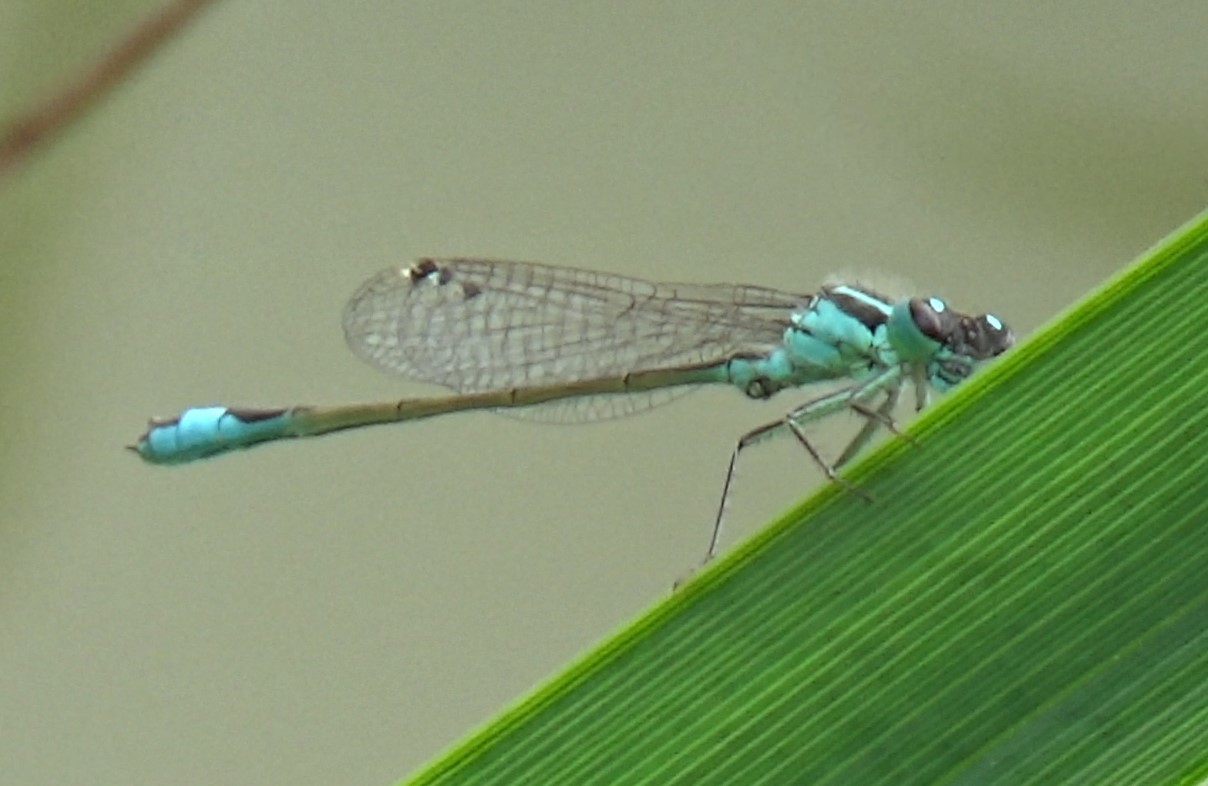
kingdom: Animalia
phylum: Arthropoda
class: Insecta
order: Odonata
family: Coenagrionidae
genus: Ischnura
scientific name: Ischnura elegans
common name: Blue-tailed damselfly
